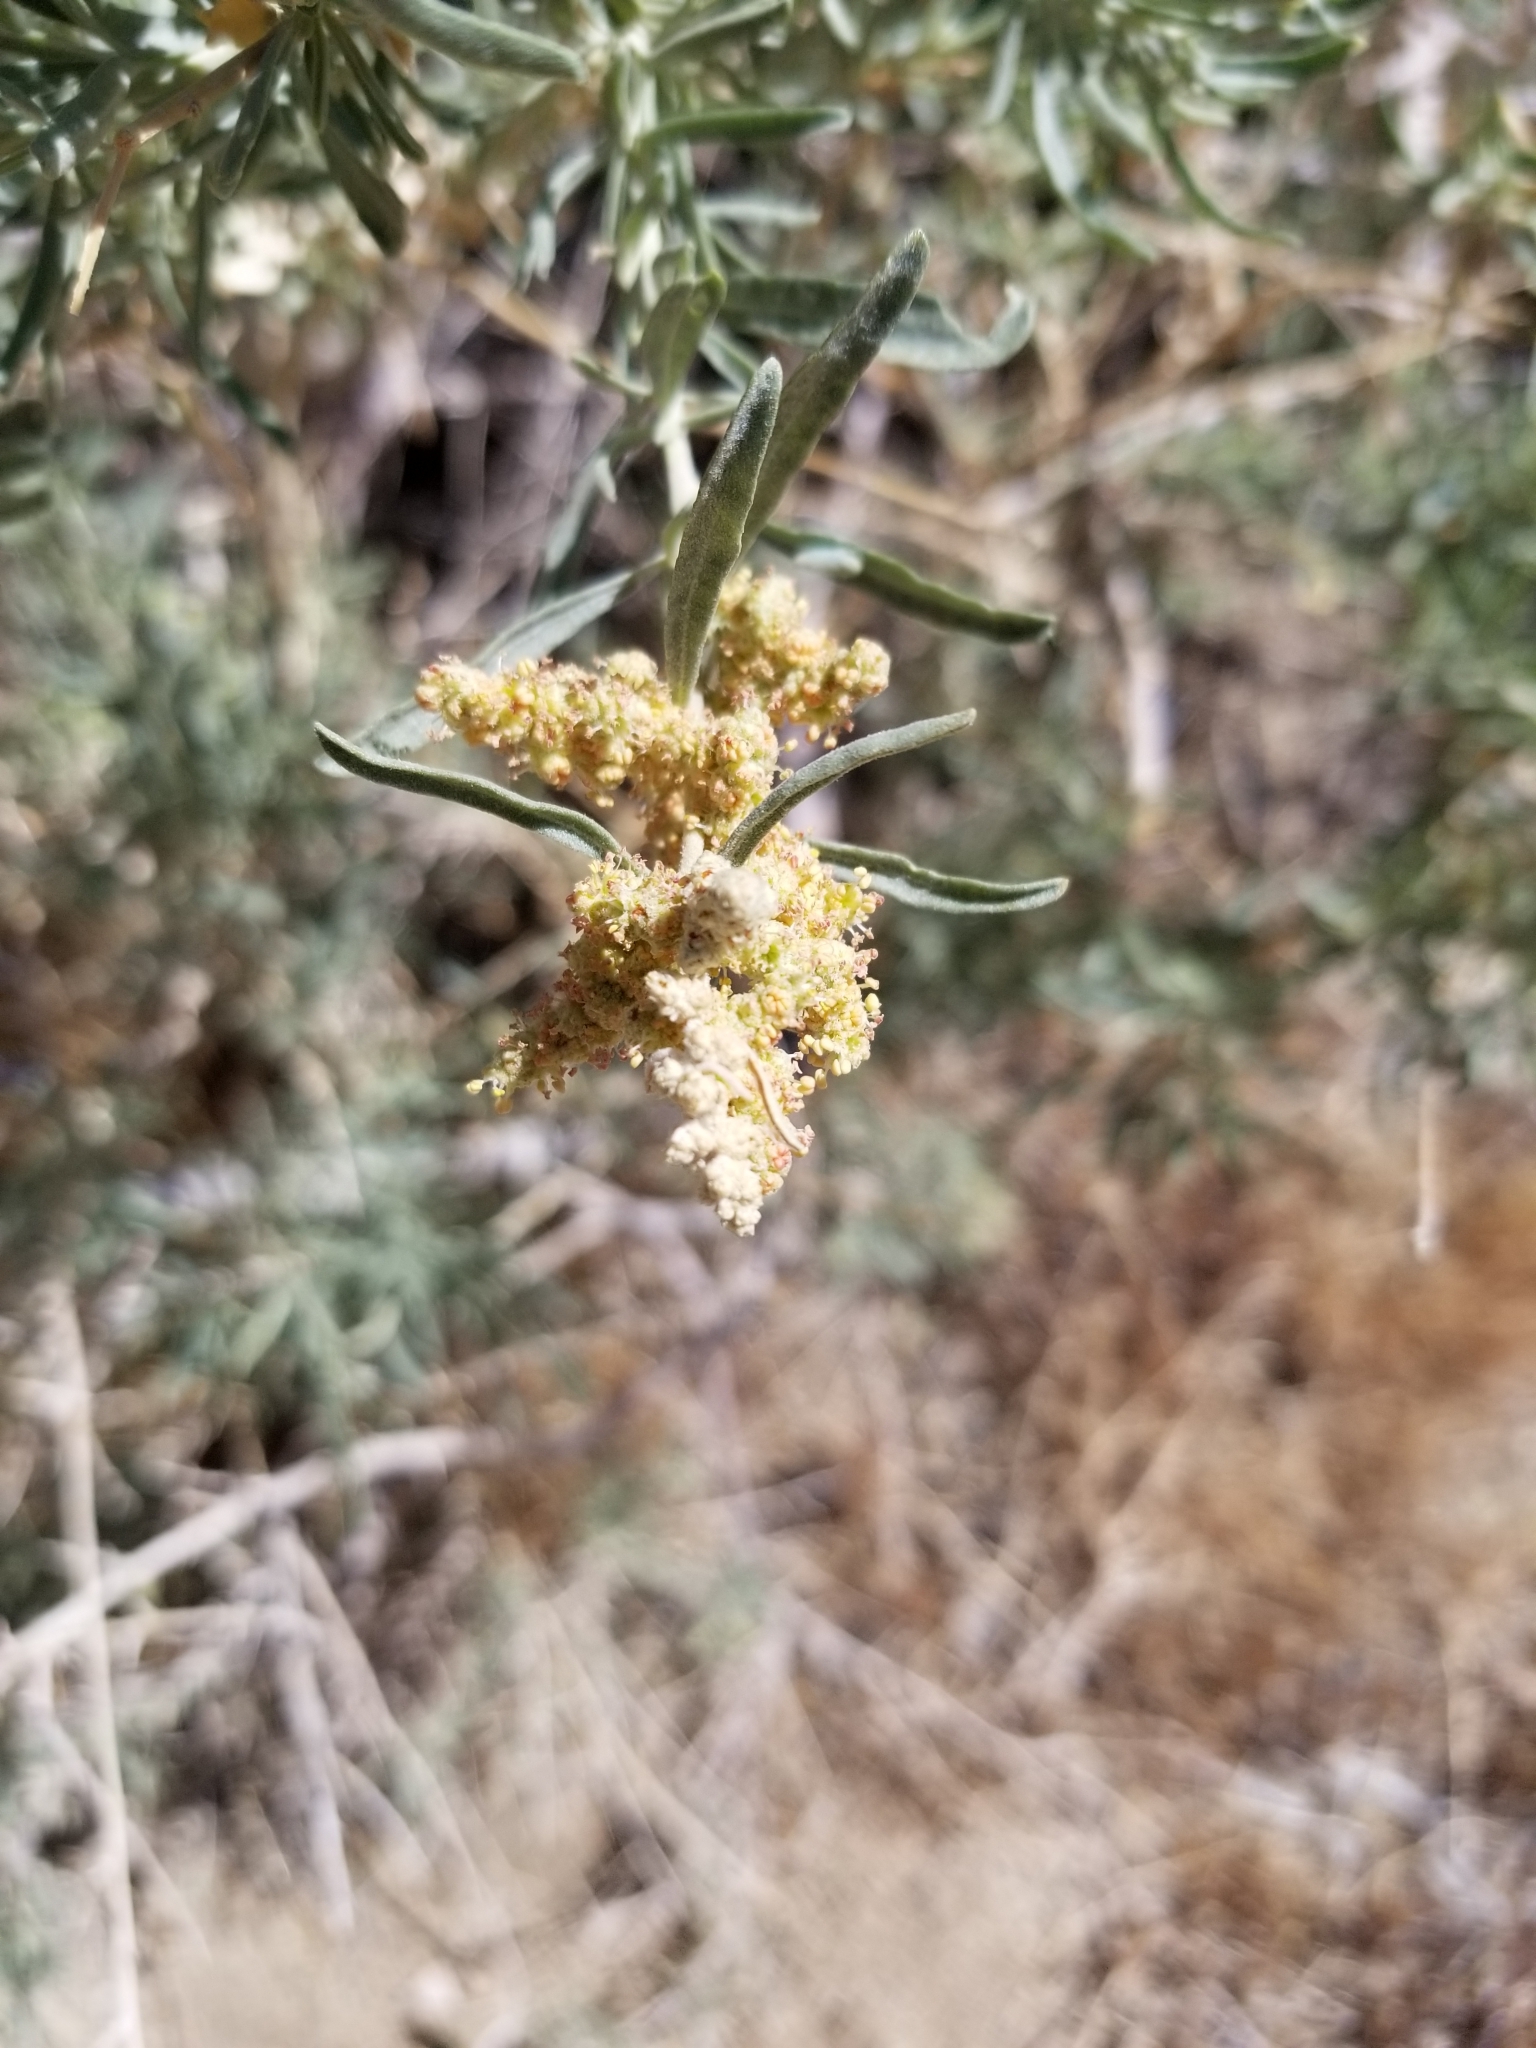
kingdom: Plantae
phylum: Tracheophyta
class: Magnoliopsida
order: Caryophyllales
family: Amaranthaceae
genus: Atriplex
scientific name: Atriplex canescens
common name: Four-wing saltbush
